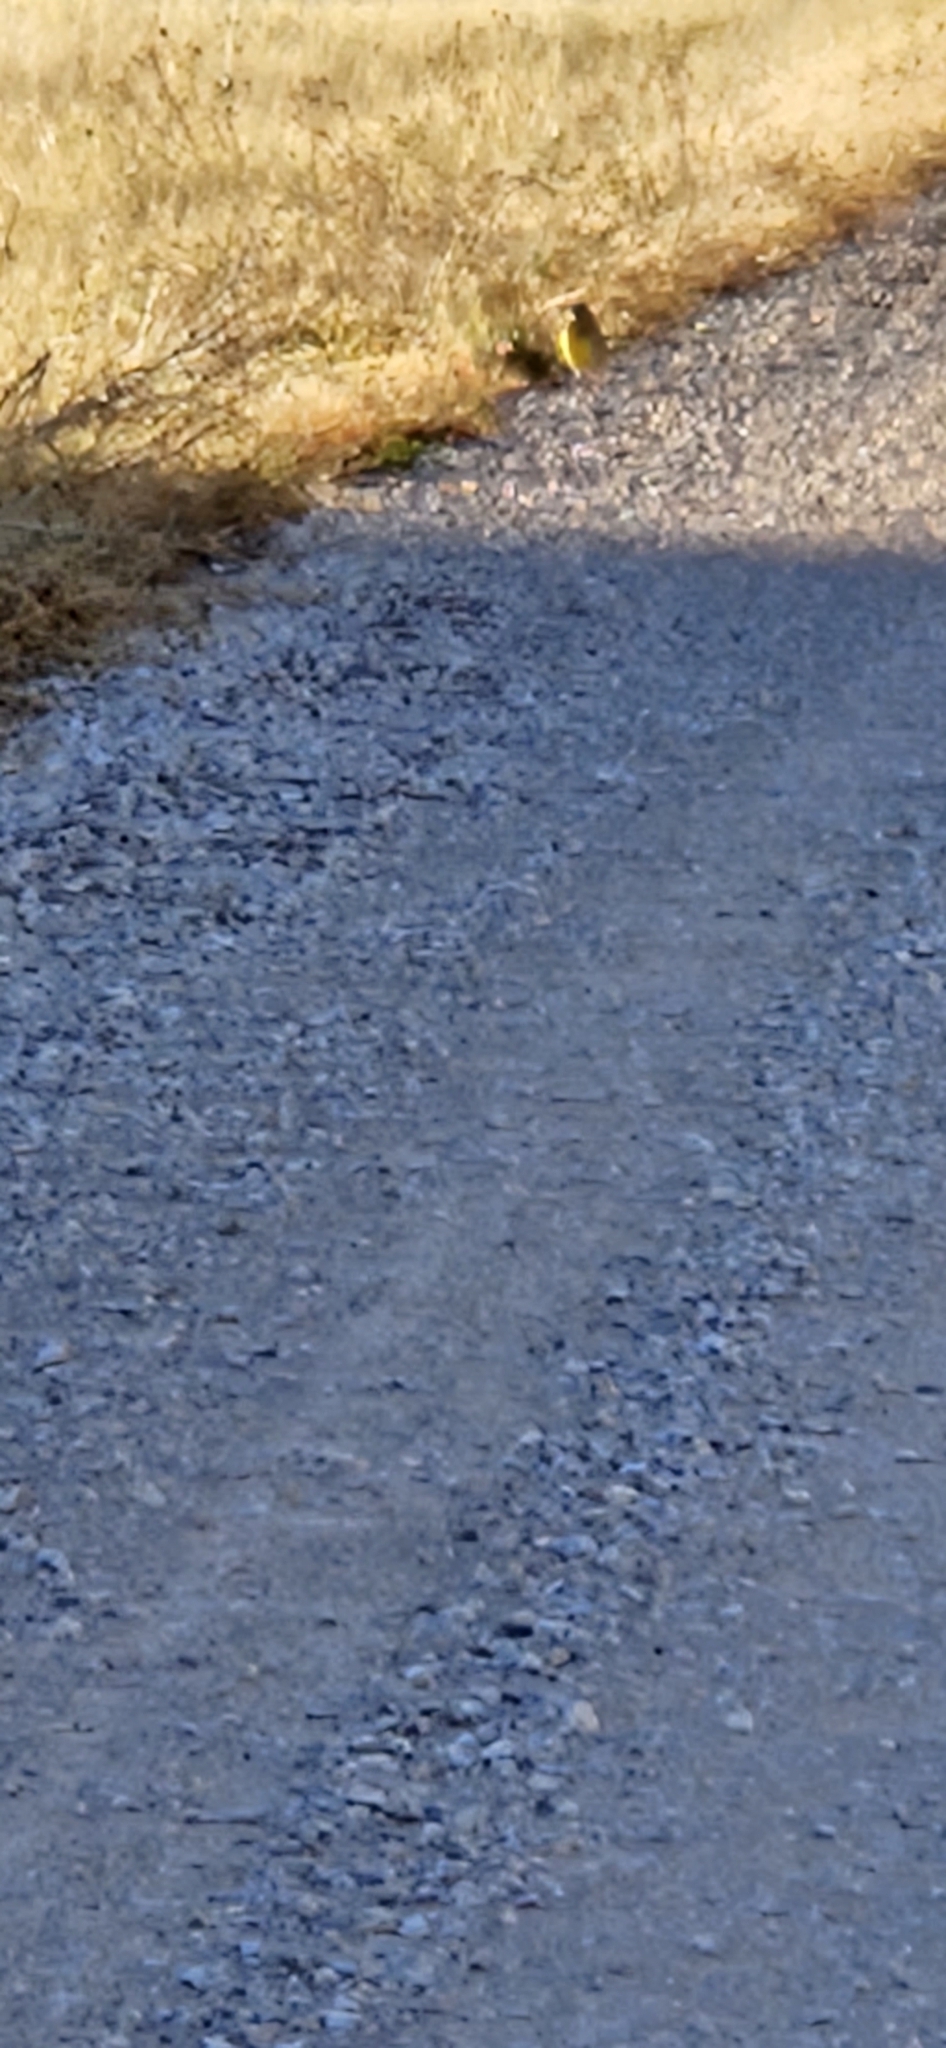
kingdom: Animalia
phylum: Chordata
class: Aves
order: Passeriformes
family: Icteridae
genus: Sturnella
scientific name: Sturnella neglecta
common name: Western meadowlark
